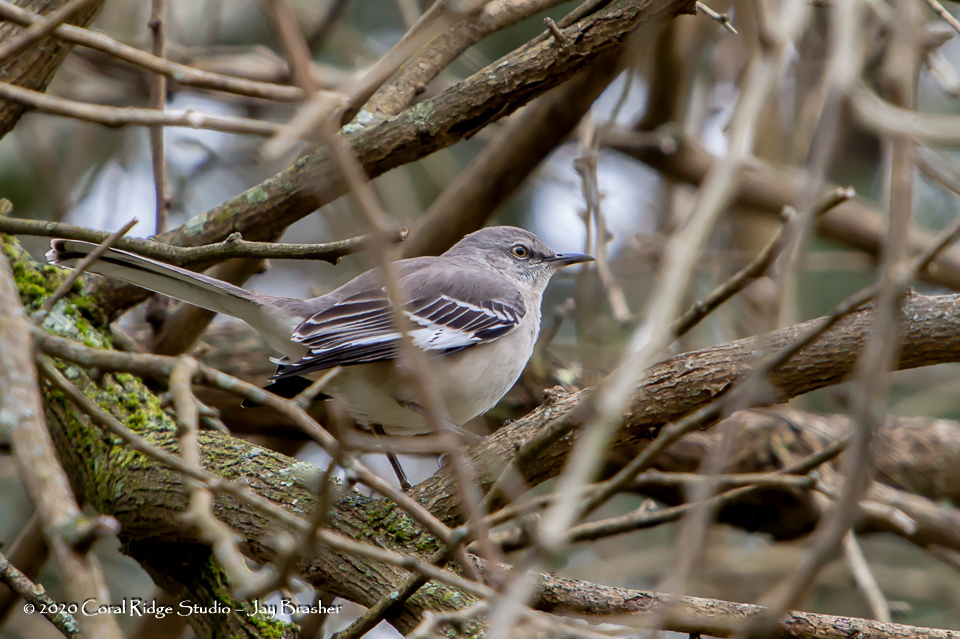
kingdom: Animalia
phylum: Chordata
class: Aves
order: Passeriformes
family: Mimidae
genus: Mimus
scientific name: Mimus polyglottos
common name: Northern mockingbird
